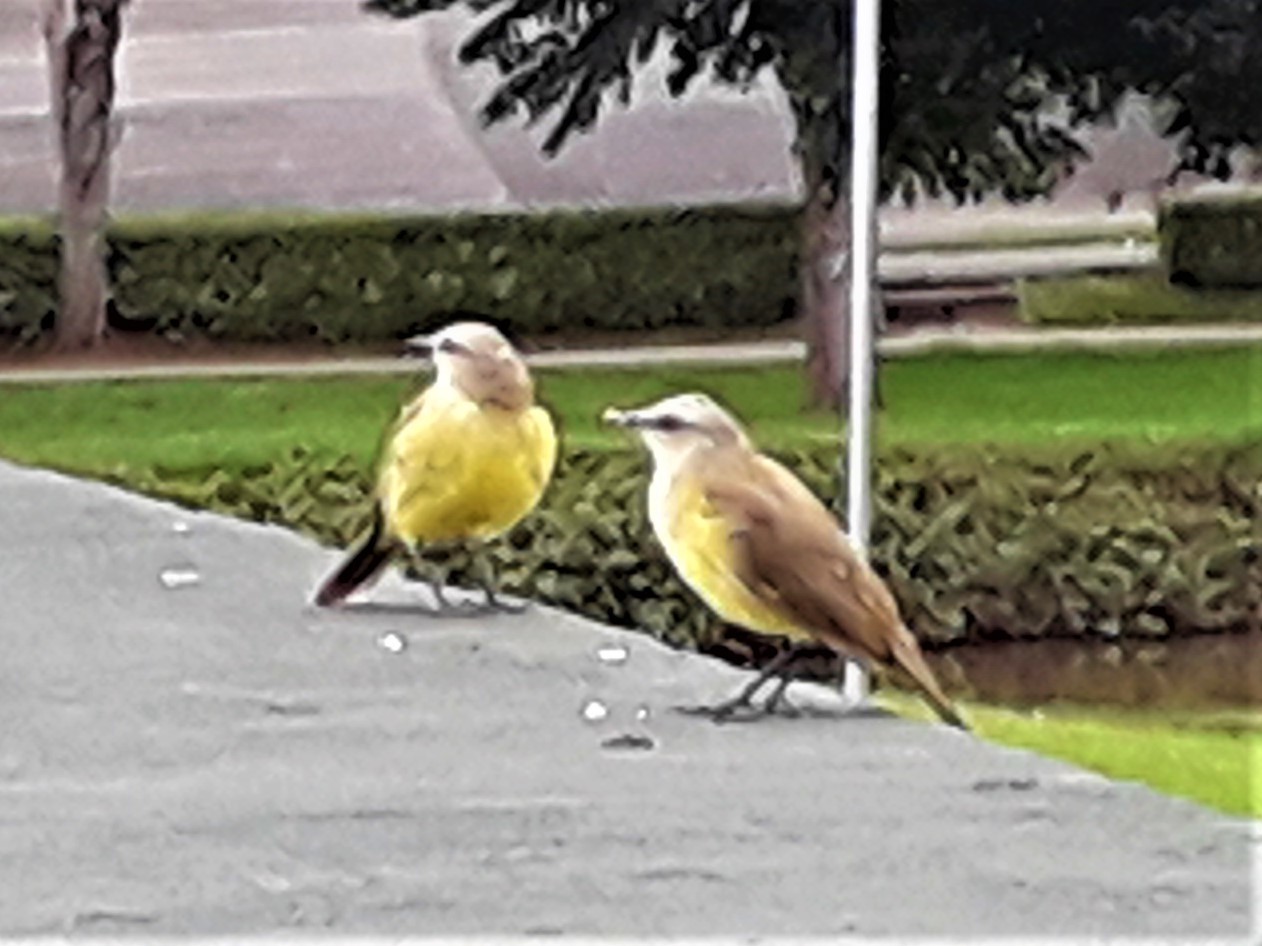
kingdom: Animalia
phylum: Chordata
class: Aves
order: Passeriformes
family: Tyrannidae
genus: Machetornis
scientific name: Machetornis rixosa
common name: Cattle tyrant
